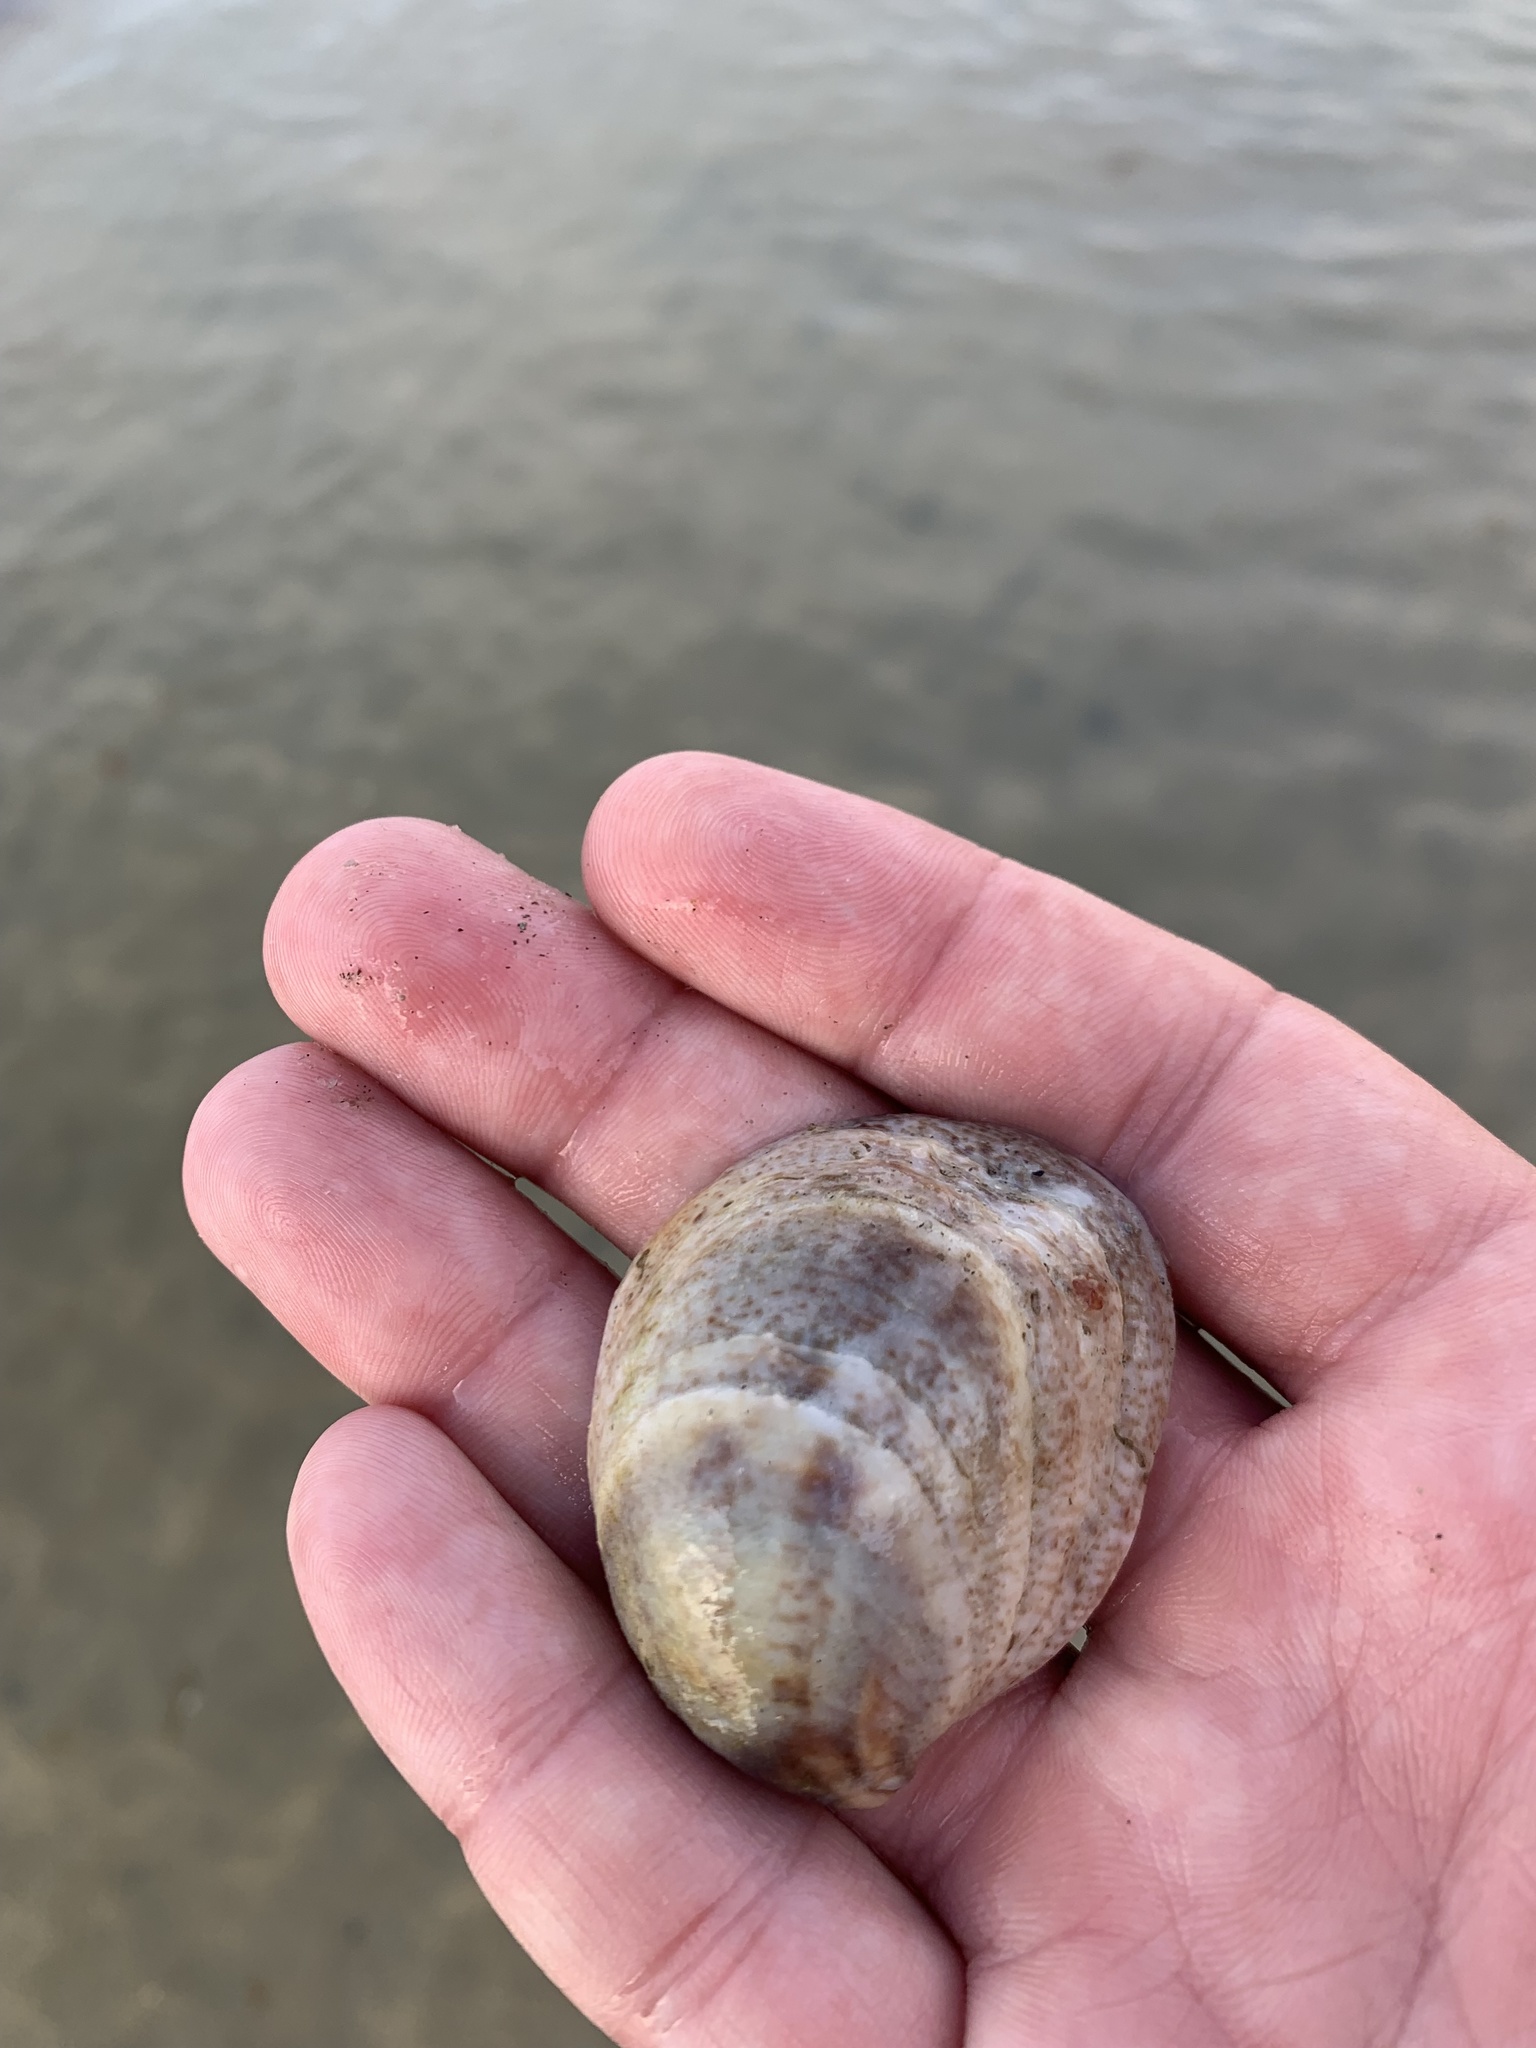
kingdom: Animalia
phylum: Mollusca
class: Gastropoda
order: Littorinimorpha
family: Calyptraeidae
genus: Crepidula
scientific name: Crepidula fornicata
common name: Slipper limpet
